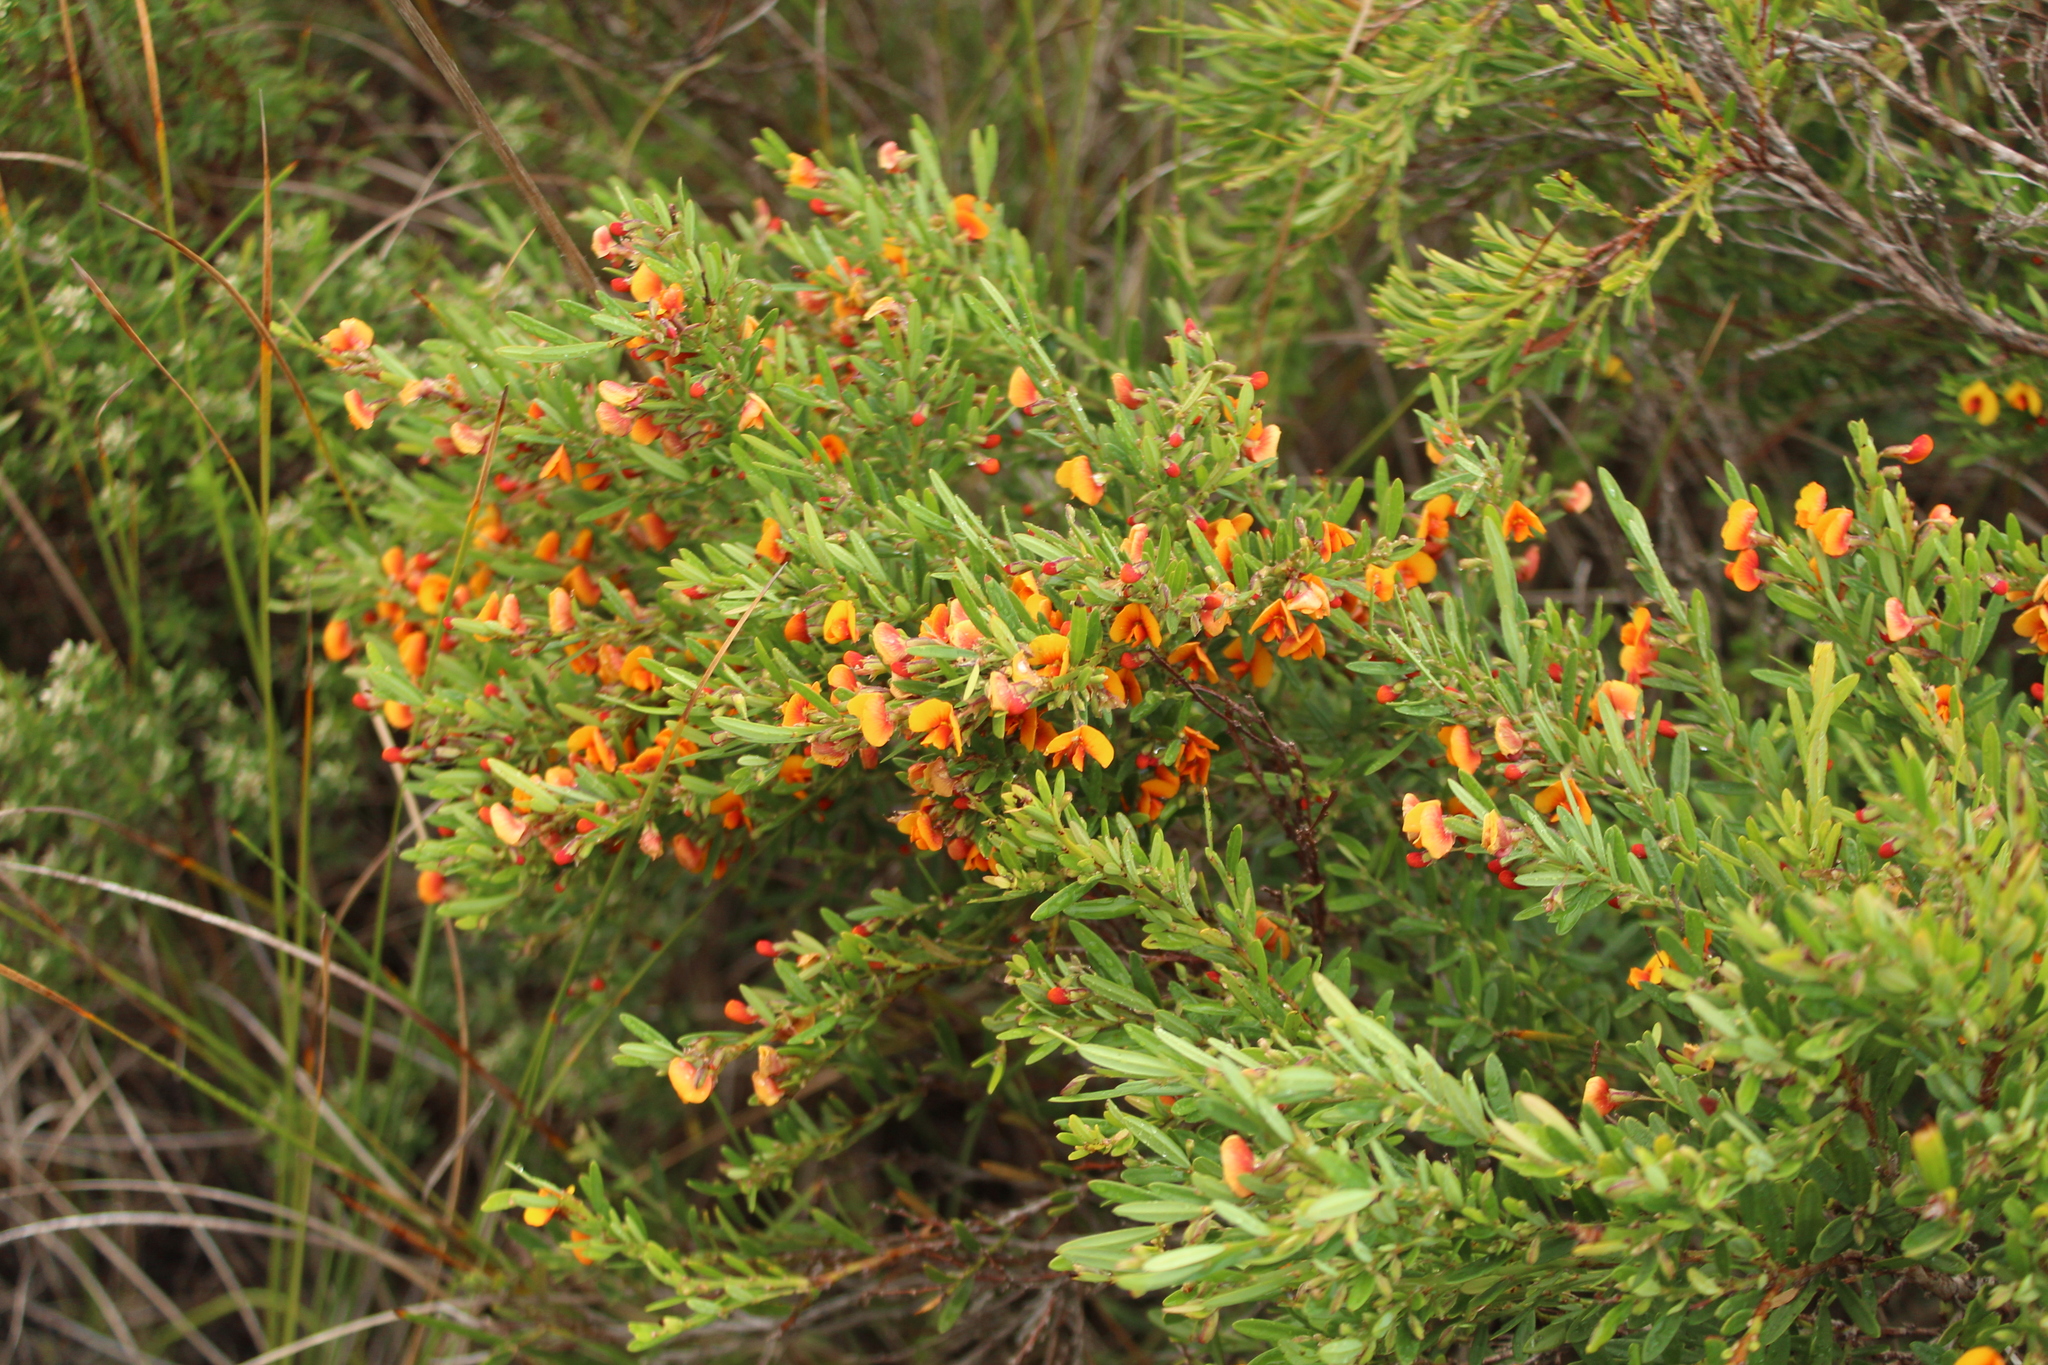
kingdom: Plantae
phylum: Tracheophyta
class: Magnoliopsida
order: Fabales
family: Fabaceae
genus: Bossiaea
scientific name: Bossiaea linophylla
